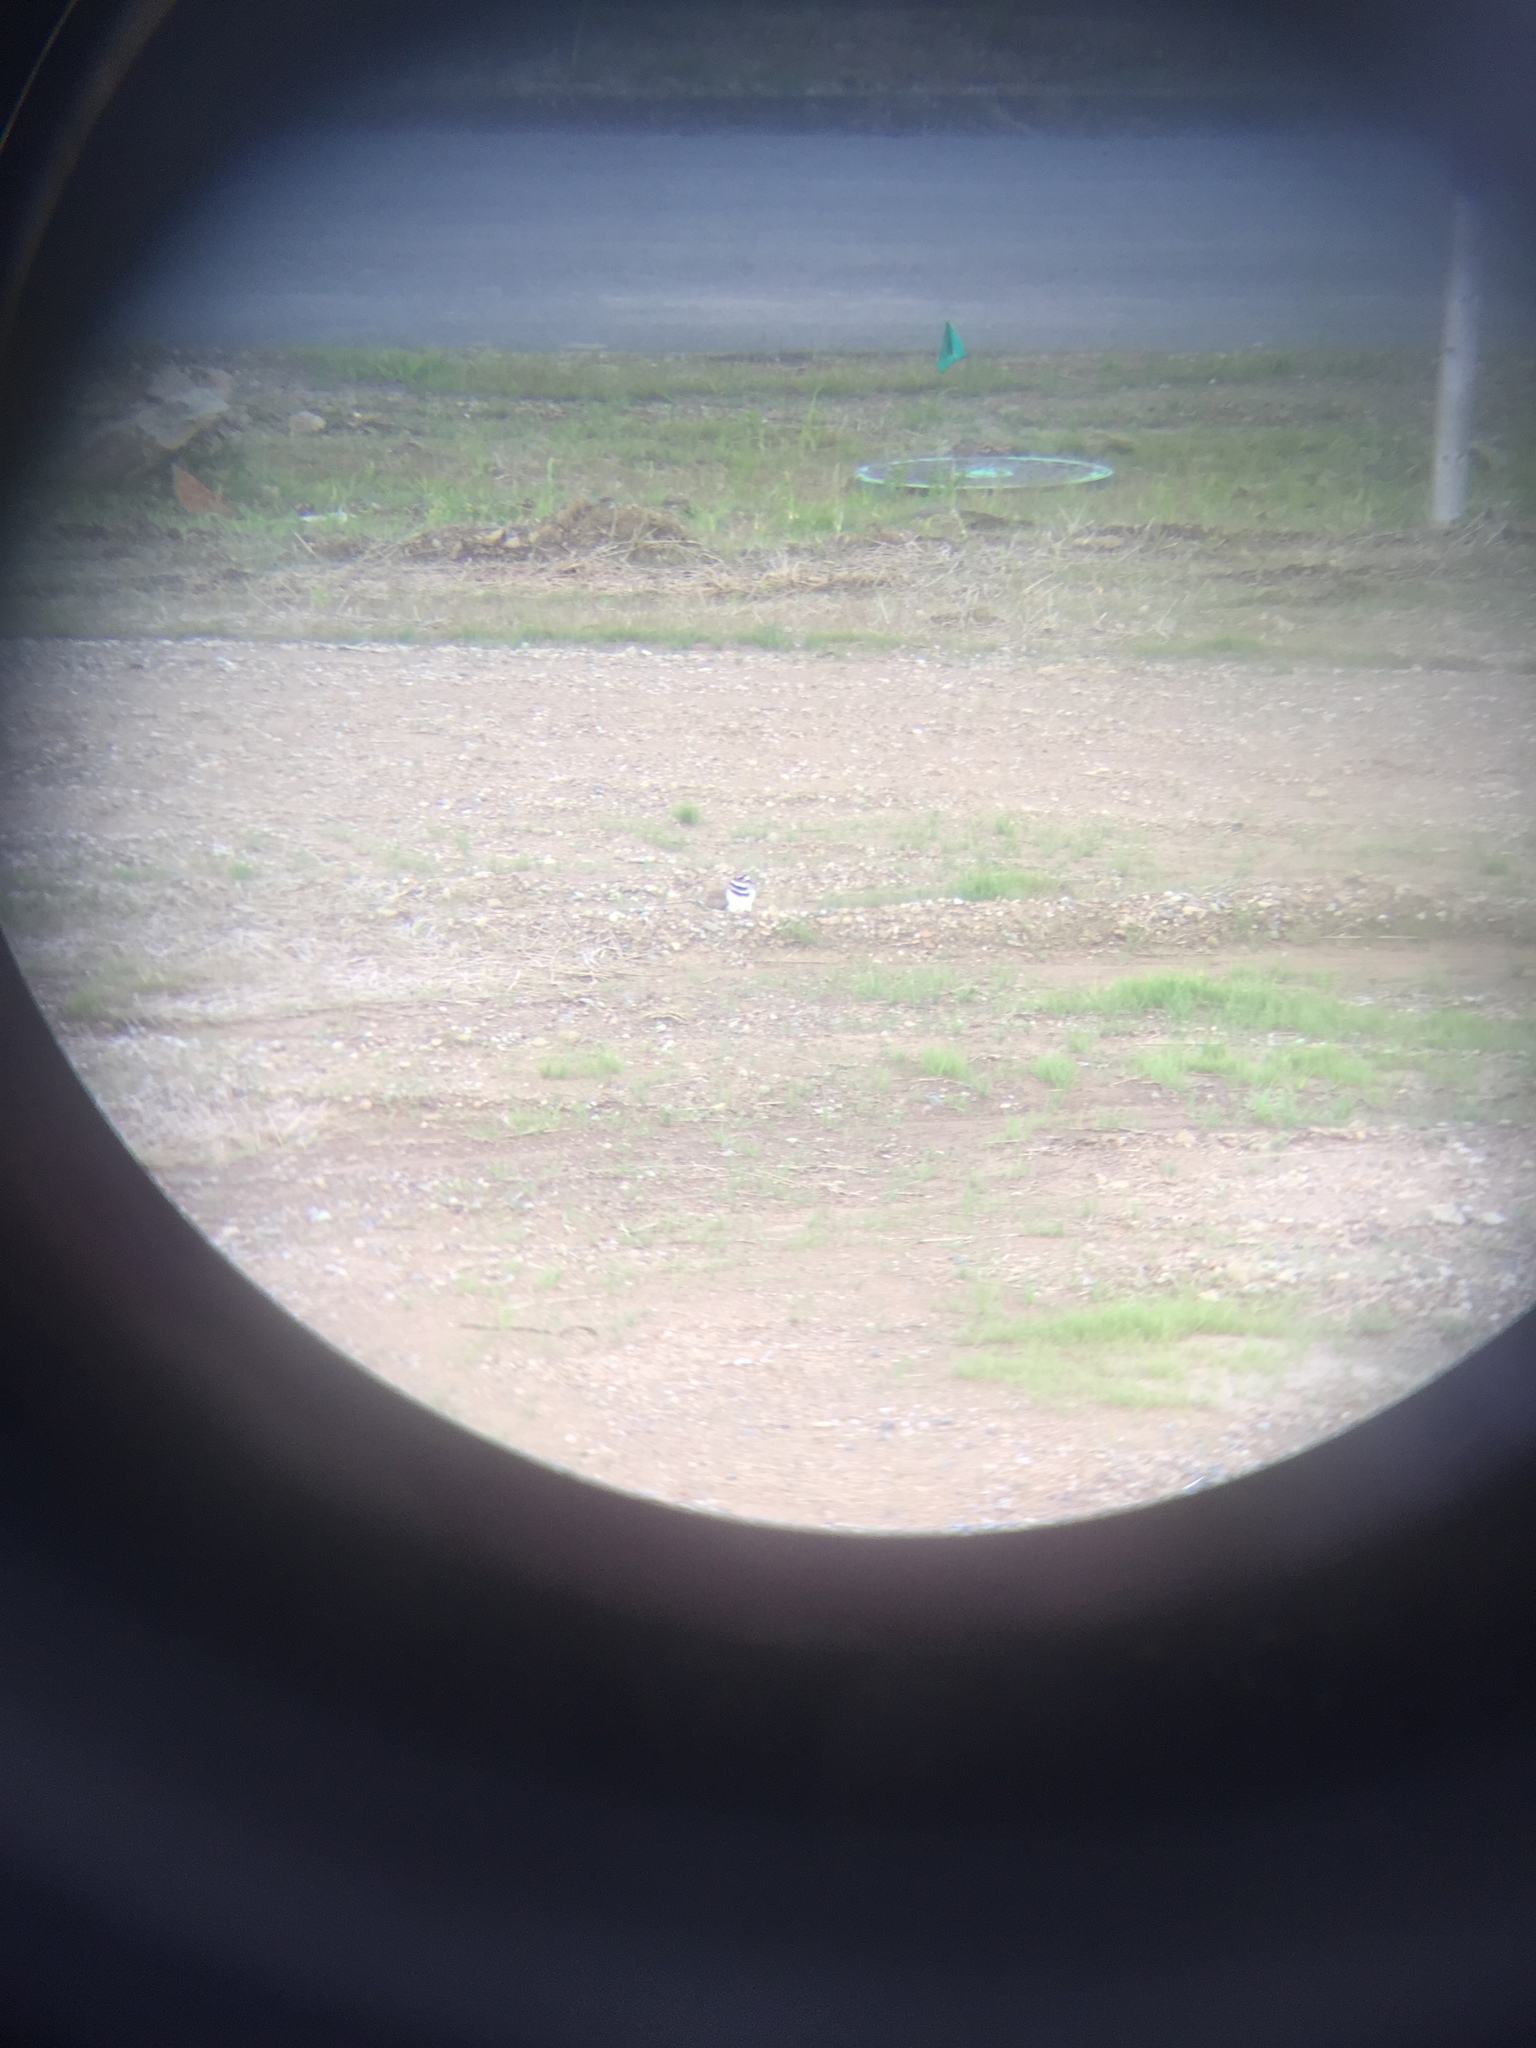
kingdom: Animalia
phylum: Chordata
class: Aves
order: Charadriiformes
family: Charadriidae
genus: Charadrius
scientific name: Charadrius vociferus
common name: Killdeer
